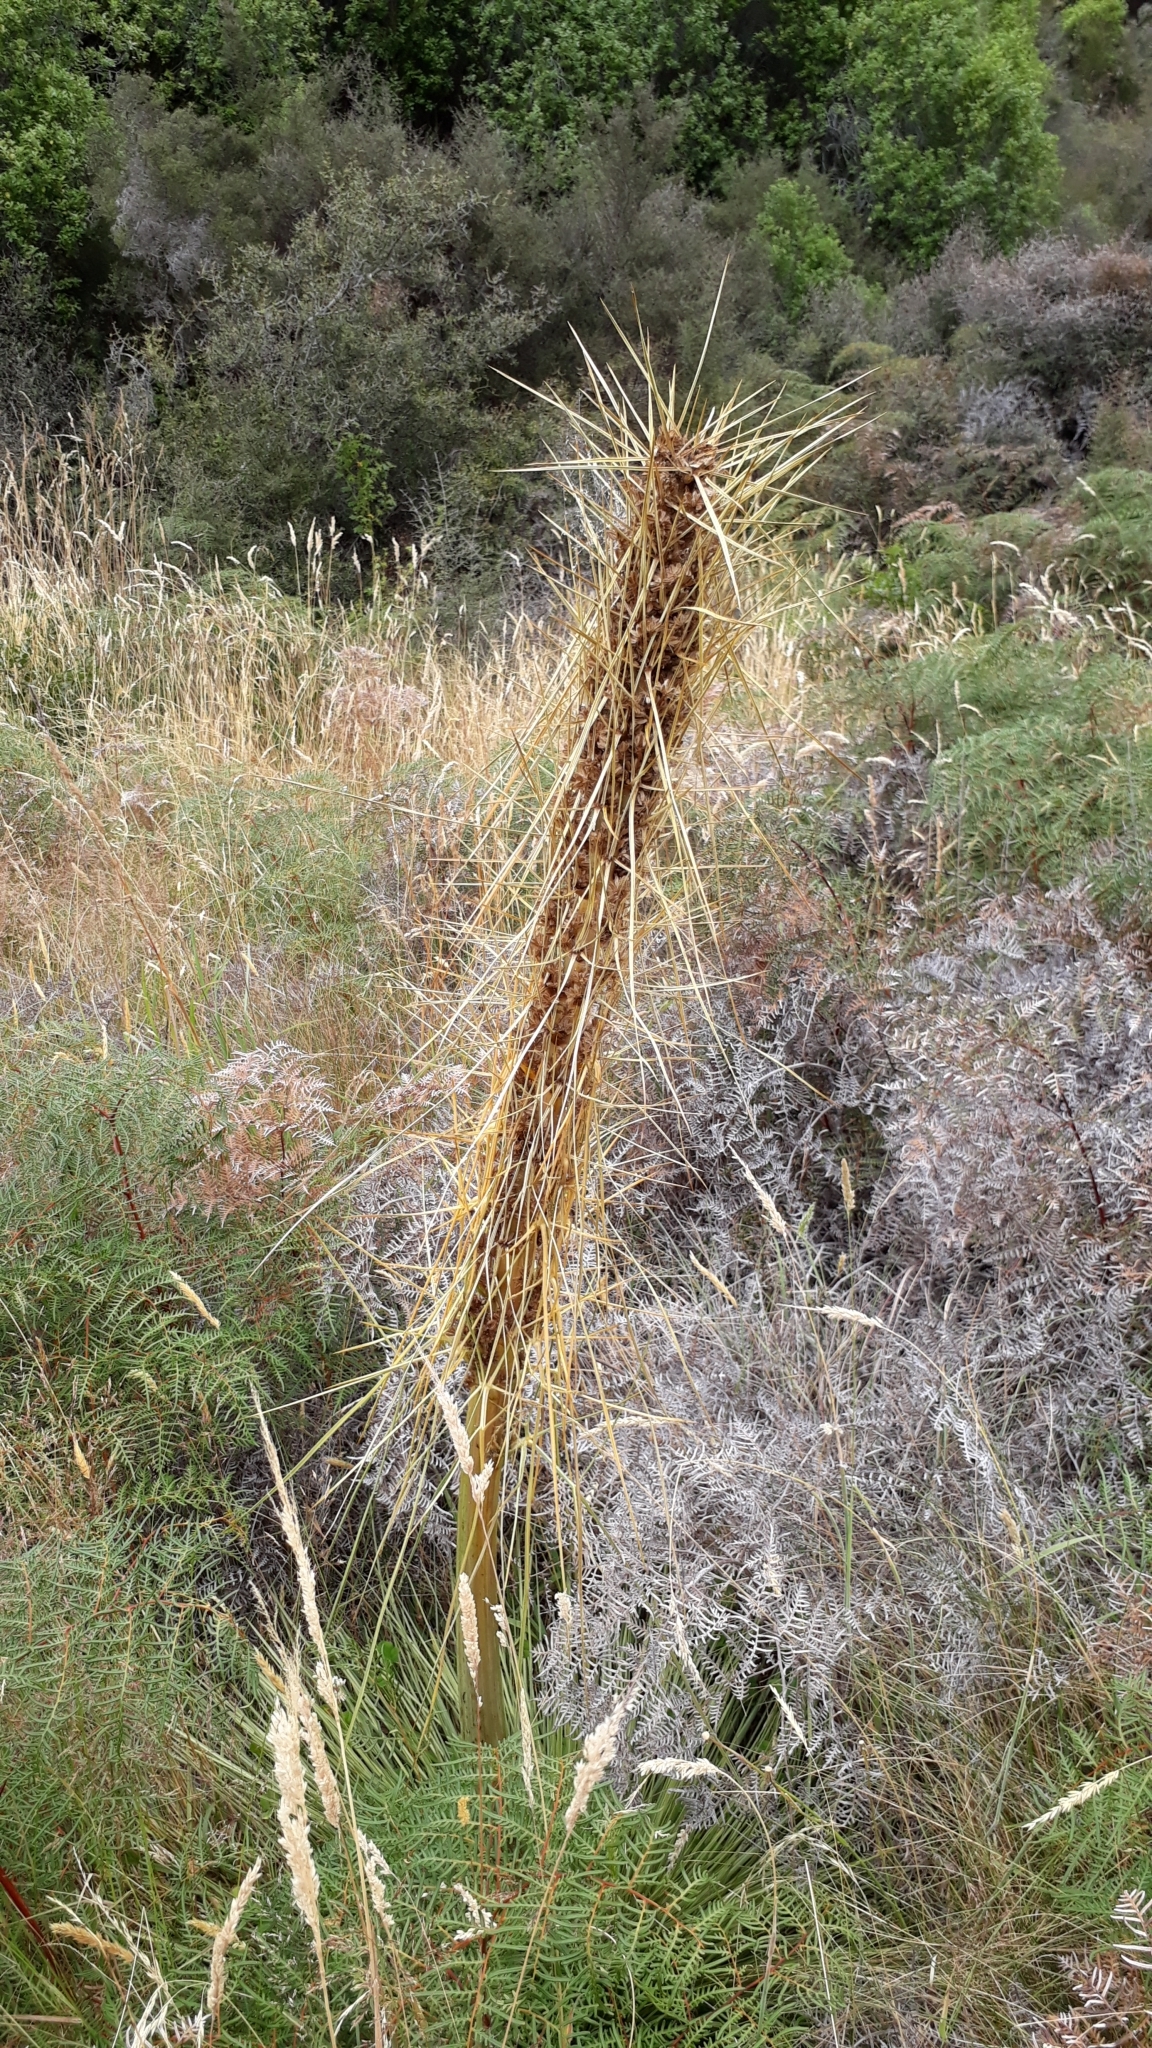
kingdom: Plantae
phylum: Tracheophyta
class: Magnoliopsida
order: Apiales
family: Apiaceae
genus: Aciphylla
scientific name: Aciphylla subflabellata
